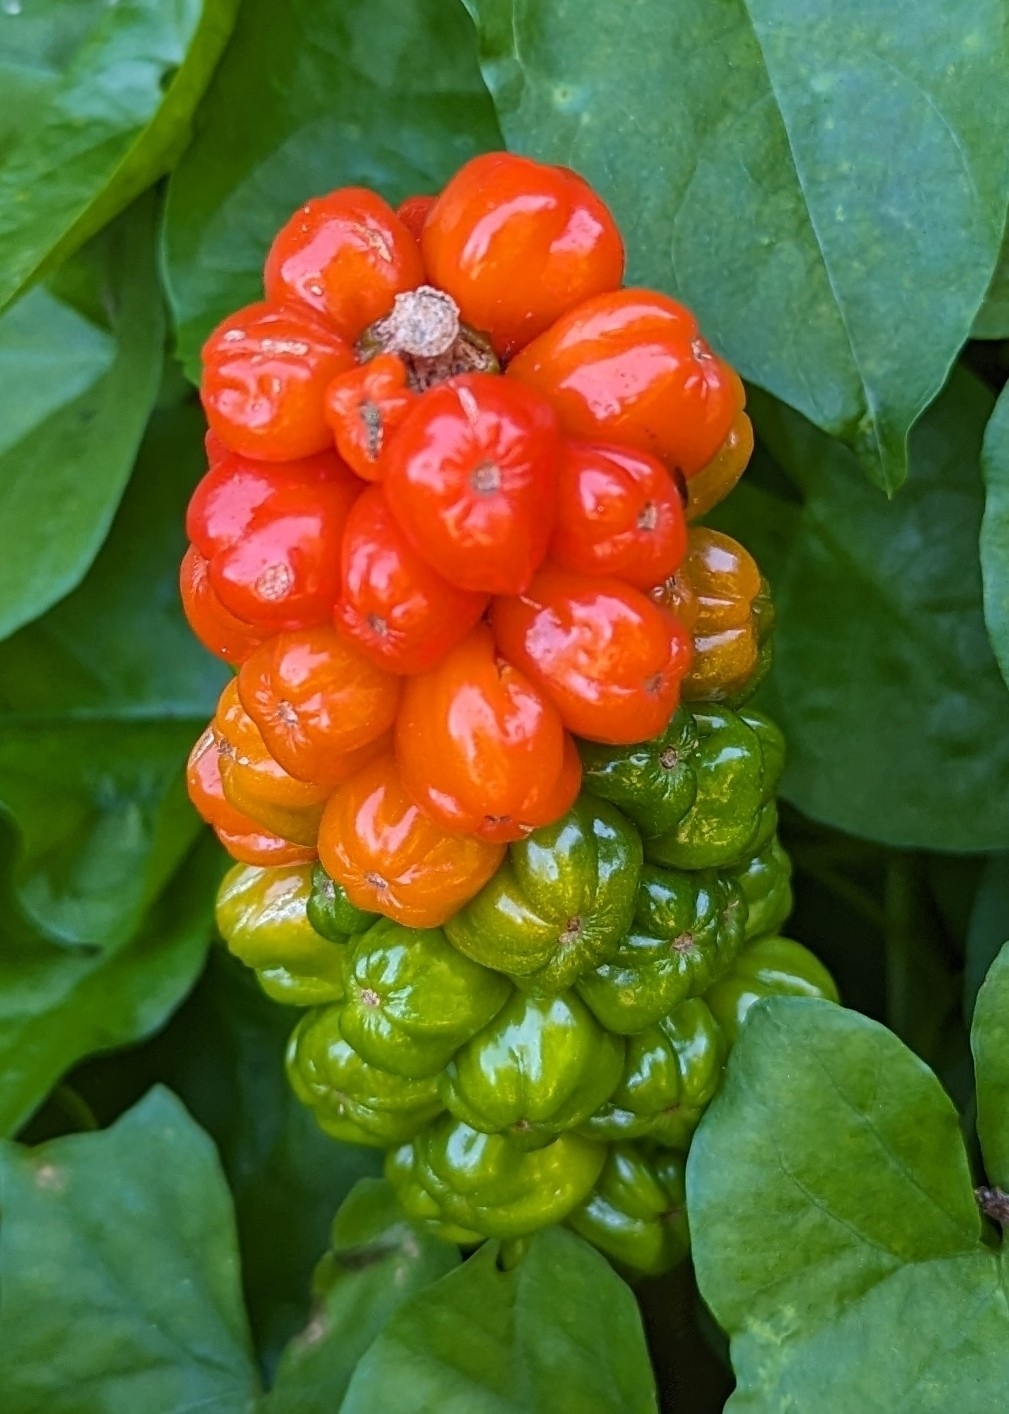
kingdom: Plantae
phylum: Tracheophyta
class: Liliopsida
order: Alismatales
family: Araceae
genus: Arum
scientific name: Arum maculatum
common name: Lords-and-ladies
